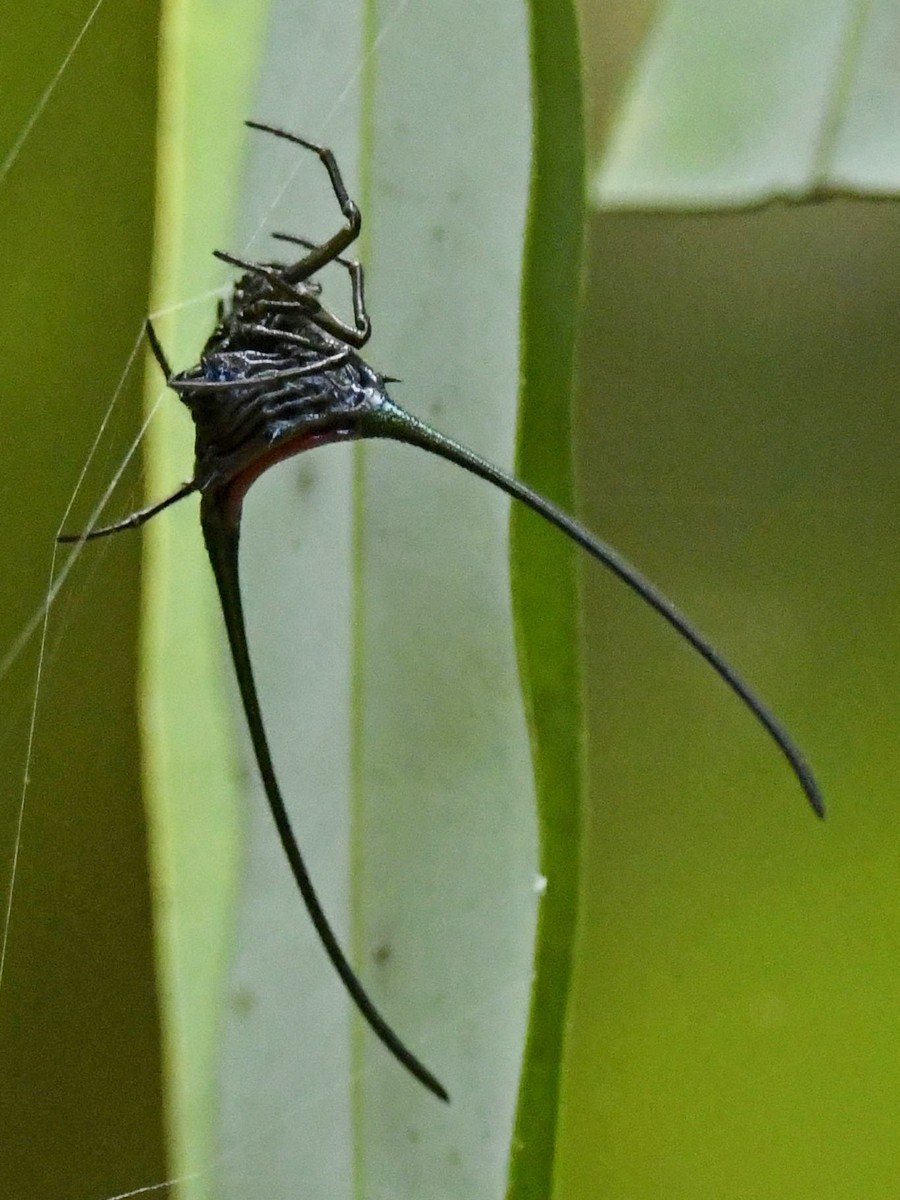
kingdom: Animalia
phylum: Arthropoda
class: Arachnida
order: Araneae
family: Araneidae
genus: Macracantha
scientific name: Macracantha arcuata
